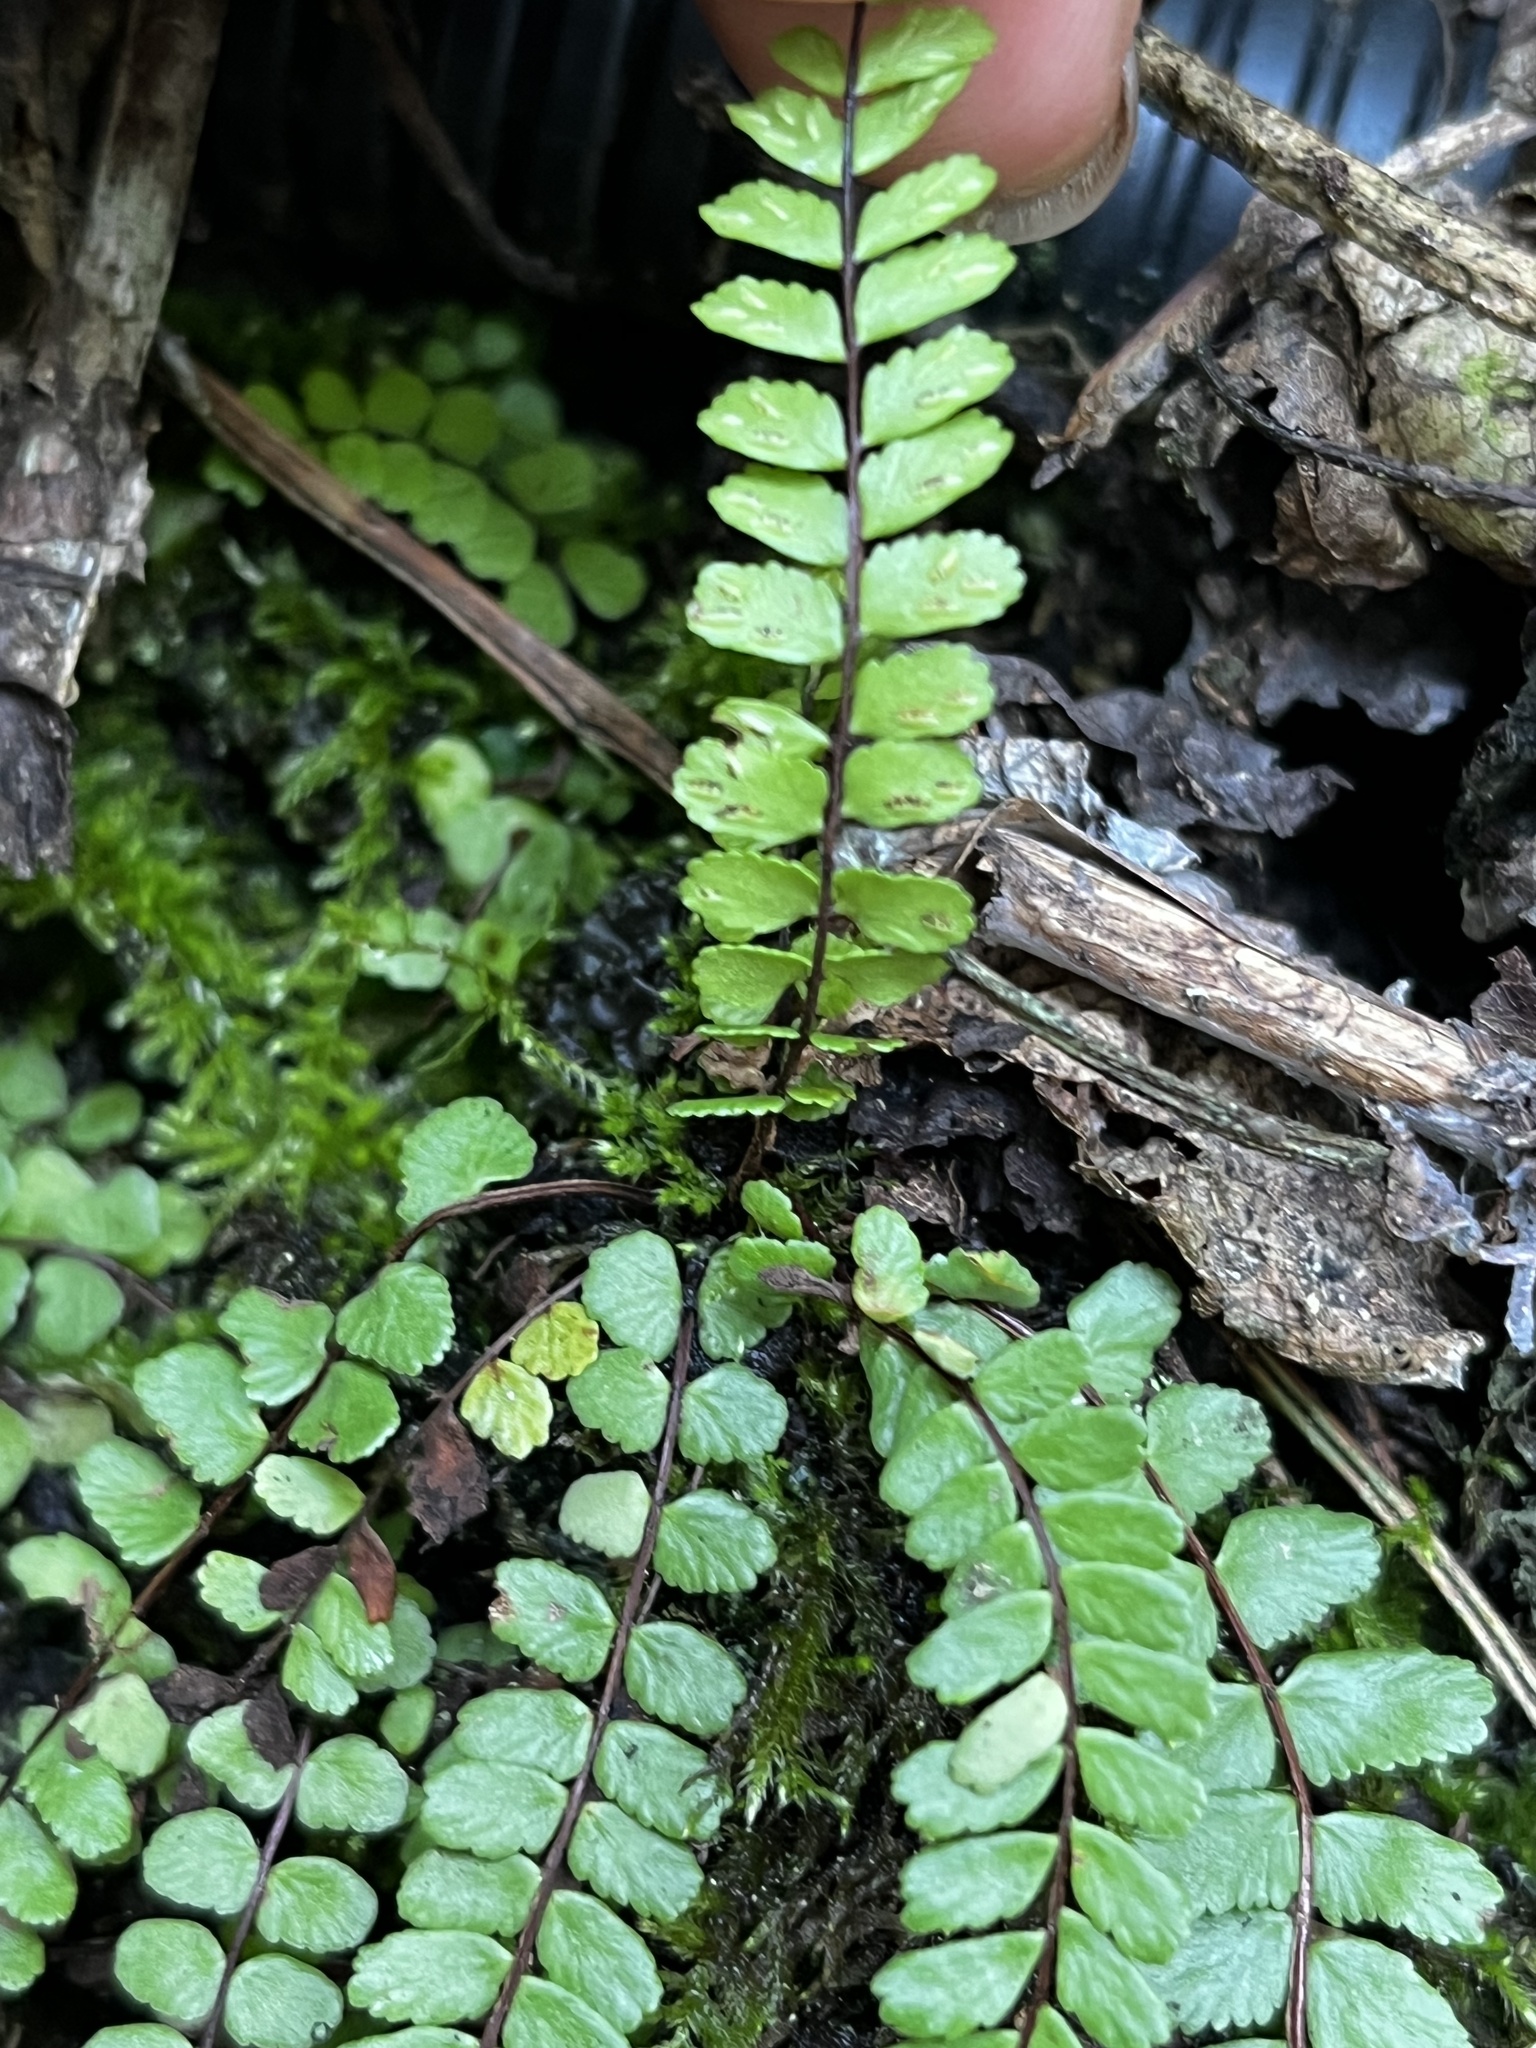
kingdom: Plantae
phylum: Tracheophyta
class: Polypodiopsida
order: Polypodiales
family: Aspleniaceae
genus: Asplenium
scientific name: Asplenium trichomanes
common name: Maidenhair spleenwort
